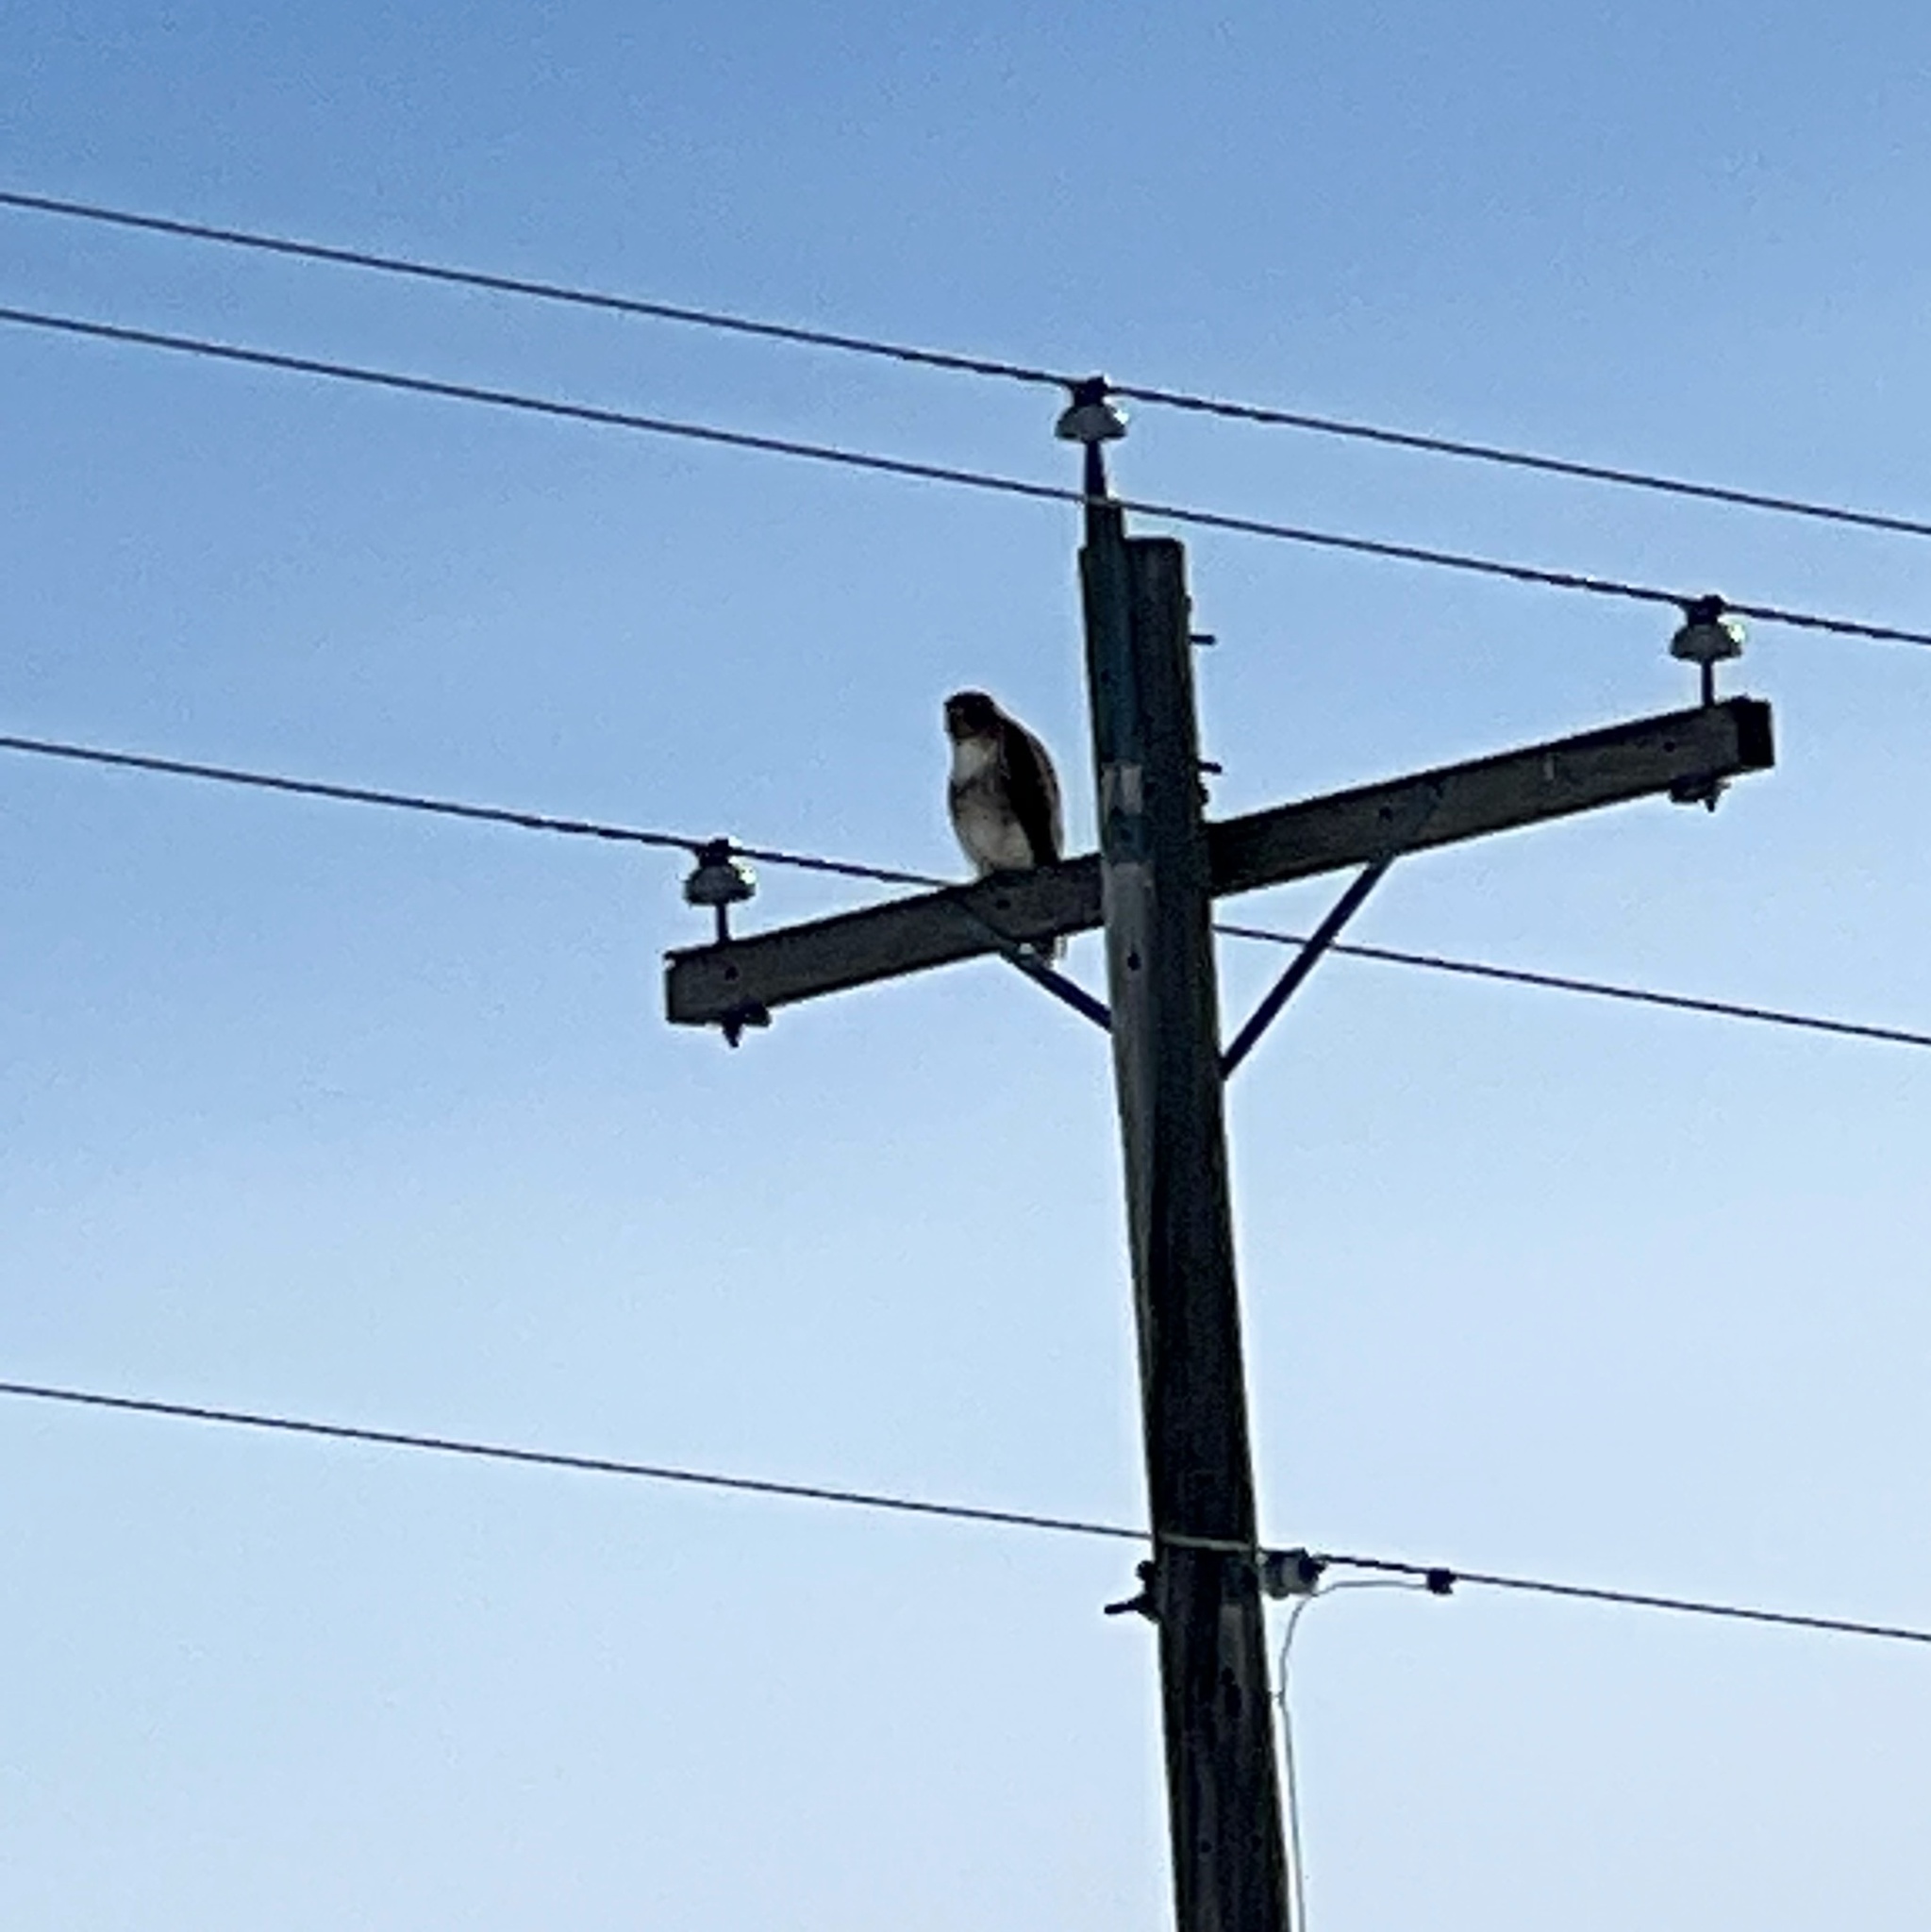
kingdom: Animalia
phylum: Chordata
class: Aves
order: Accipitriformes
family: Accipitridae
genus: Buteo
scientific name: Buteo jamaicensis
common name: Red-tailed hawk
